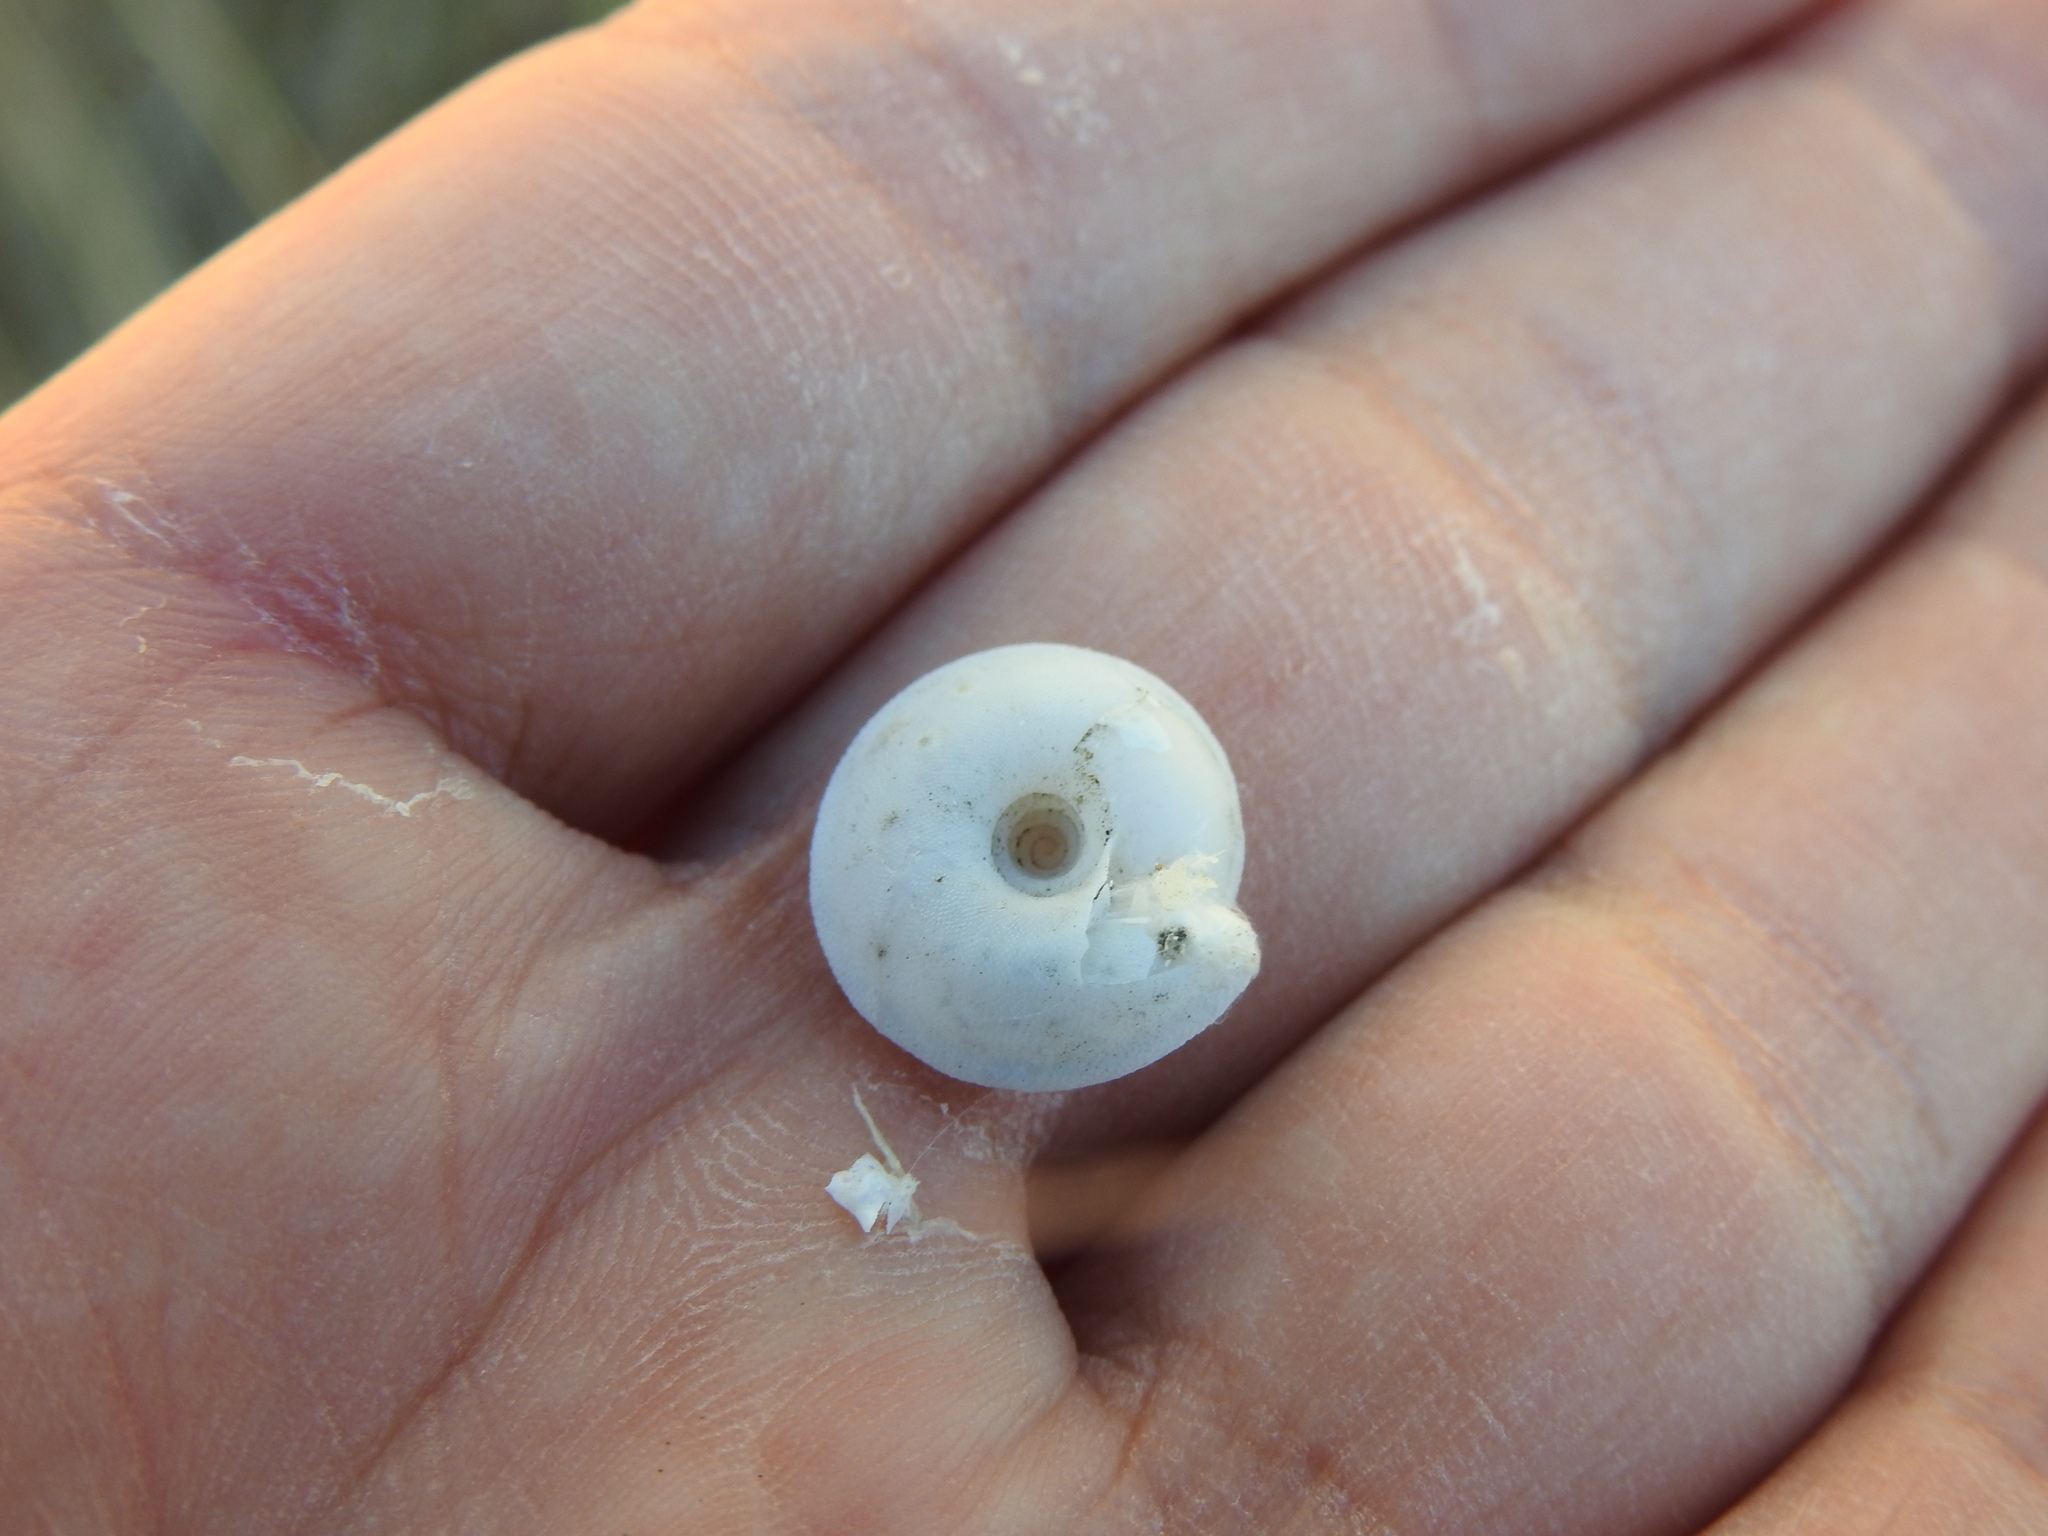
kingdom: Animalia
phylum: Mollusca
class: Gastropoda
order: Stylommatophora
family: Trissexodontidae
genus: Gittenbergeria
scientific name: Gittenbergeria turriplana
